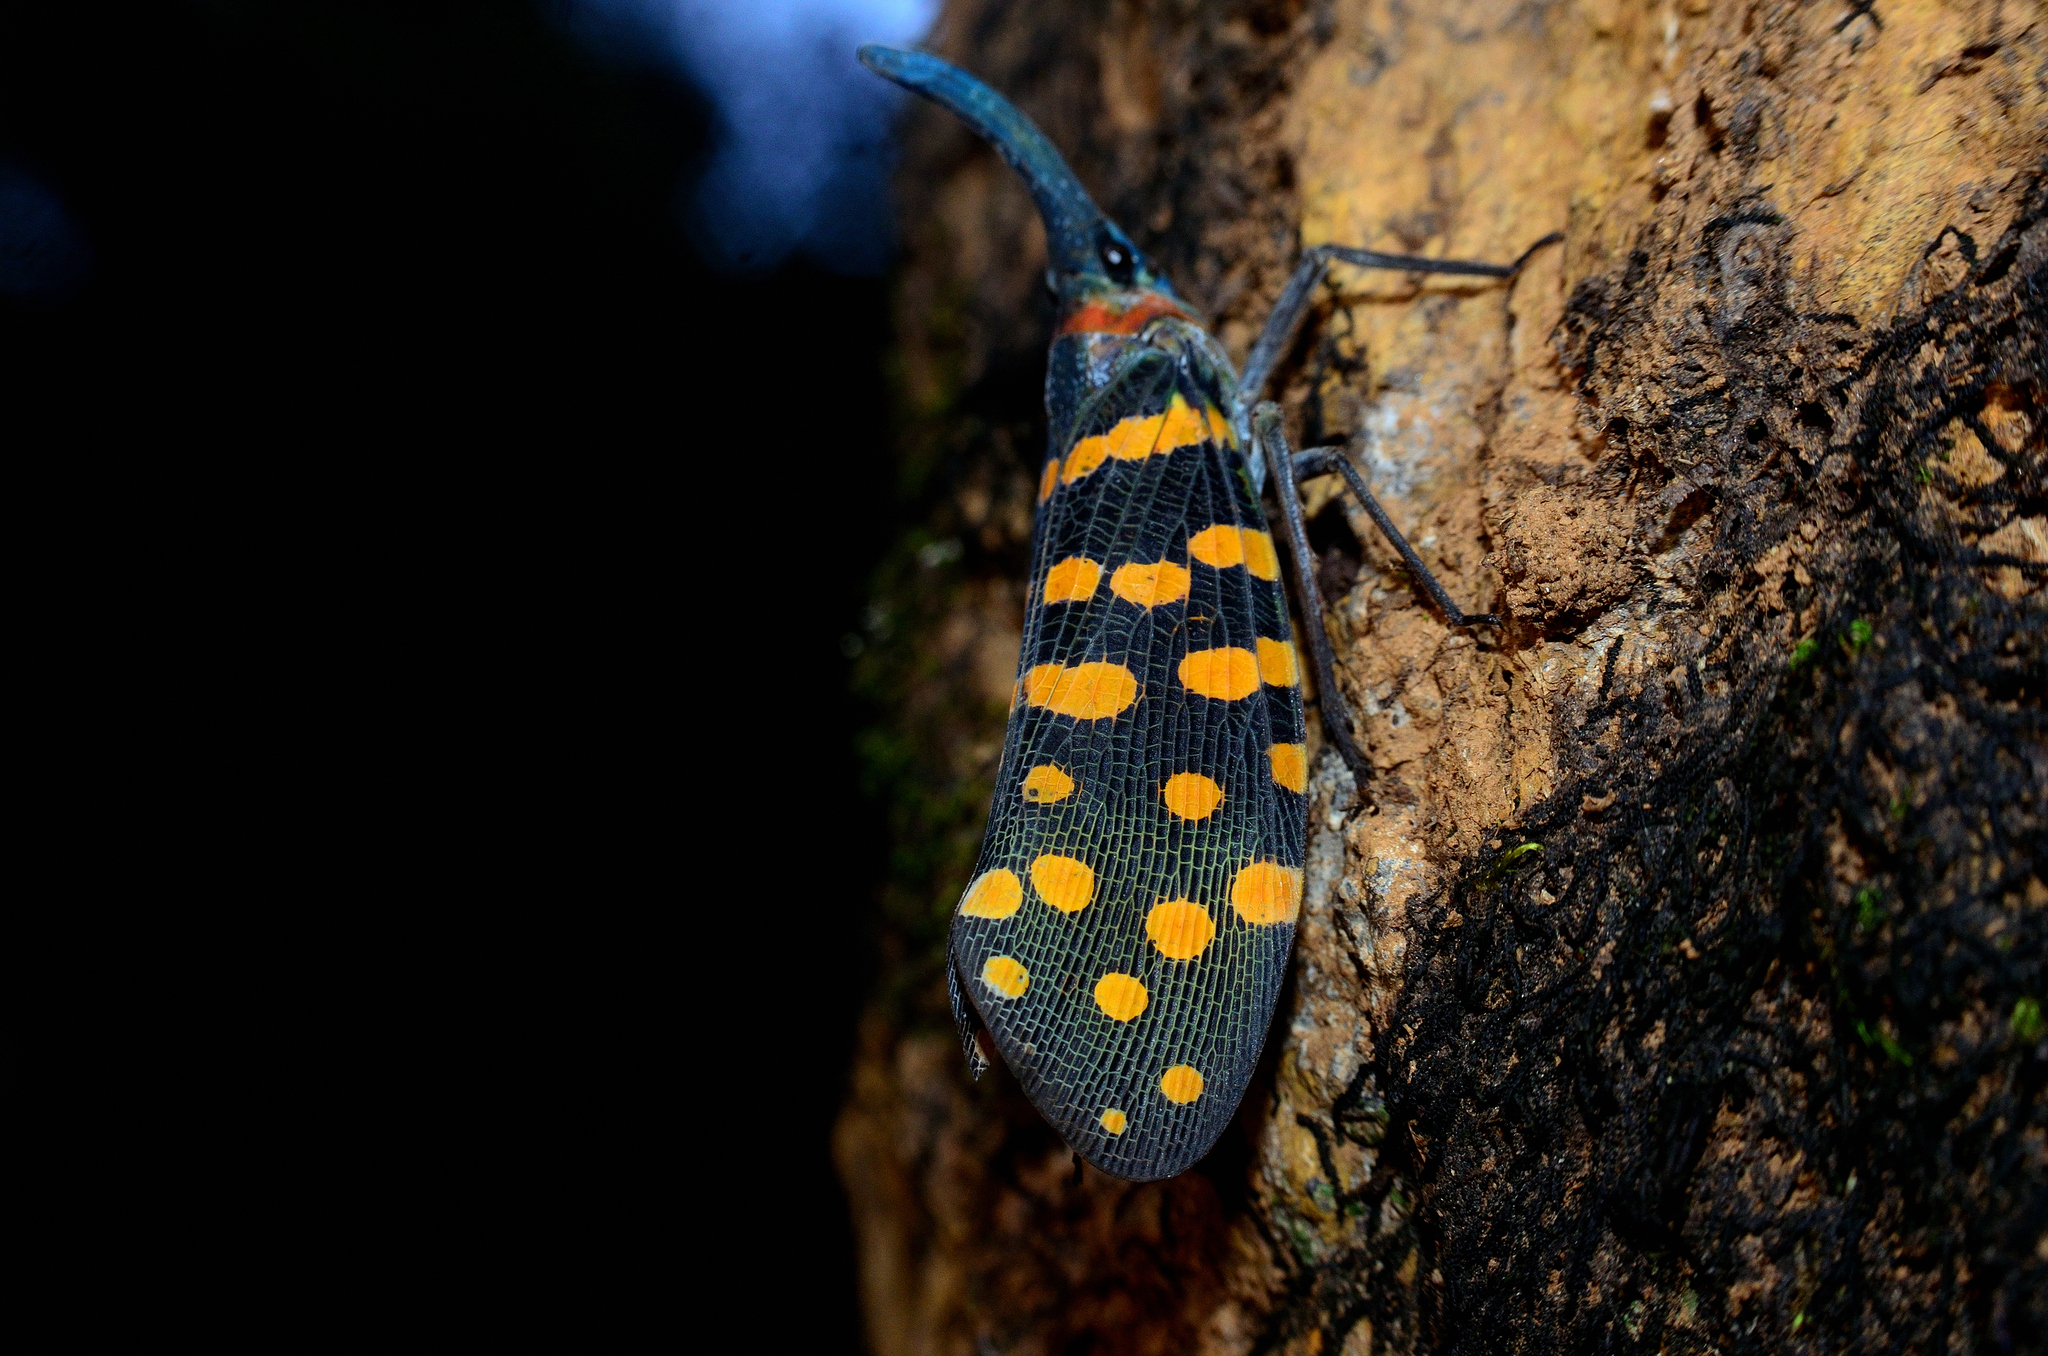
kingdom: Animalia
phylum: Arthropoda
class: Insecta
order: Hemiptera
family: Fulgoridae
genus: Pyrops
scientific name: Pyrops
